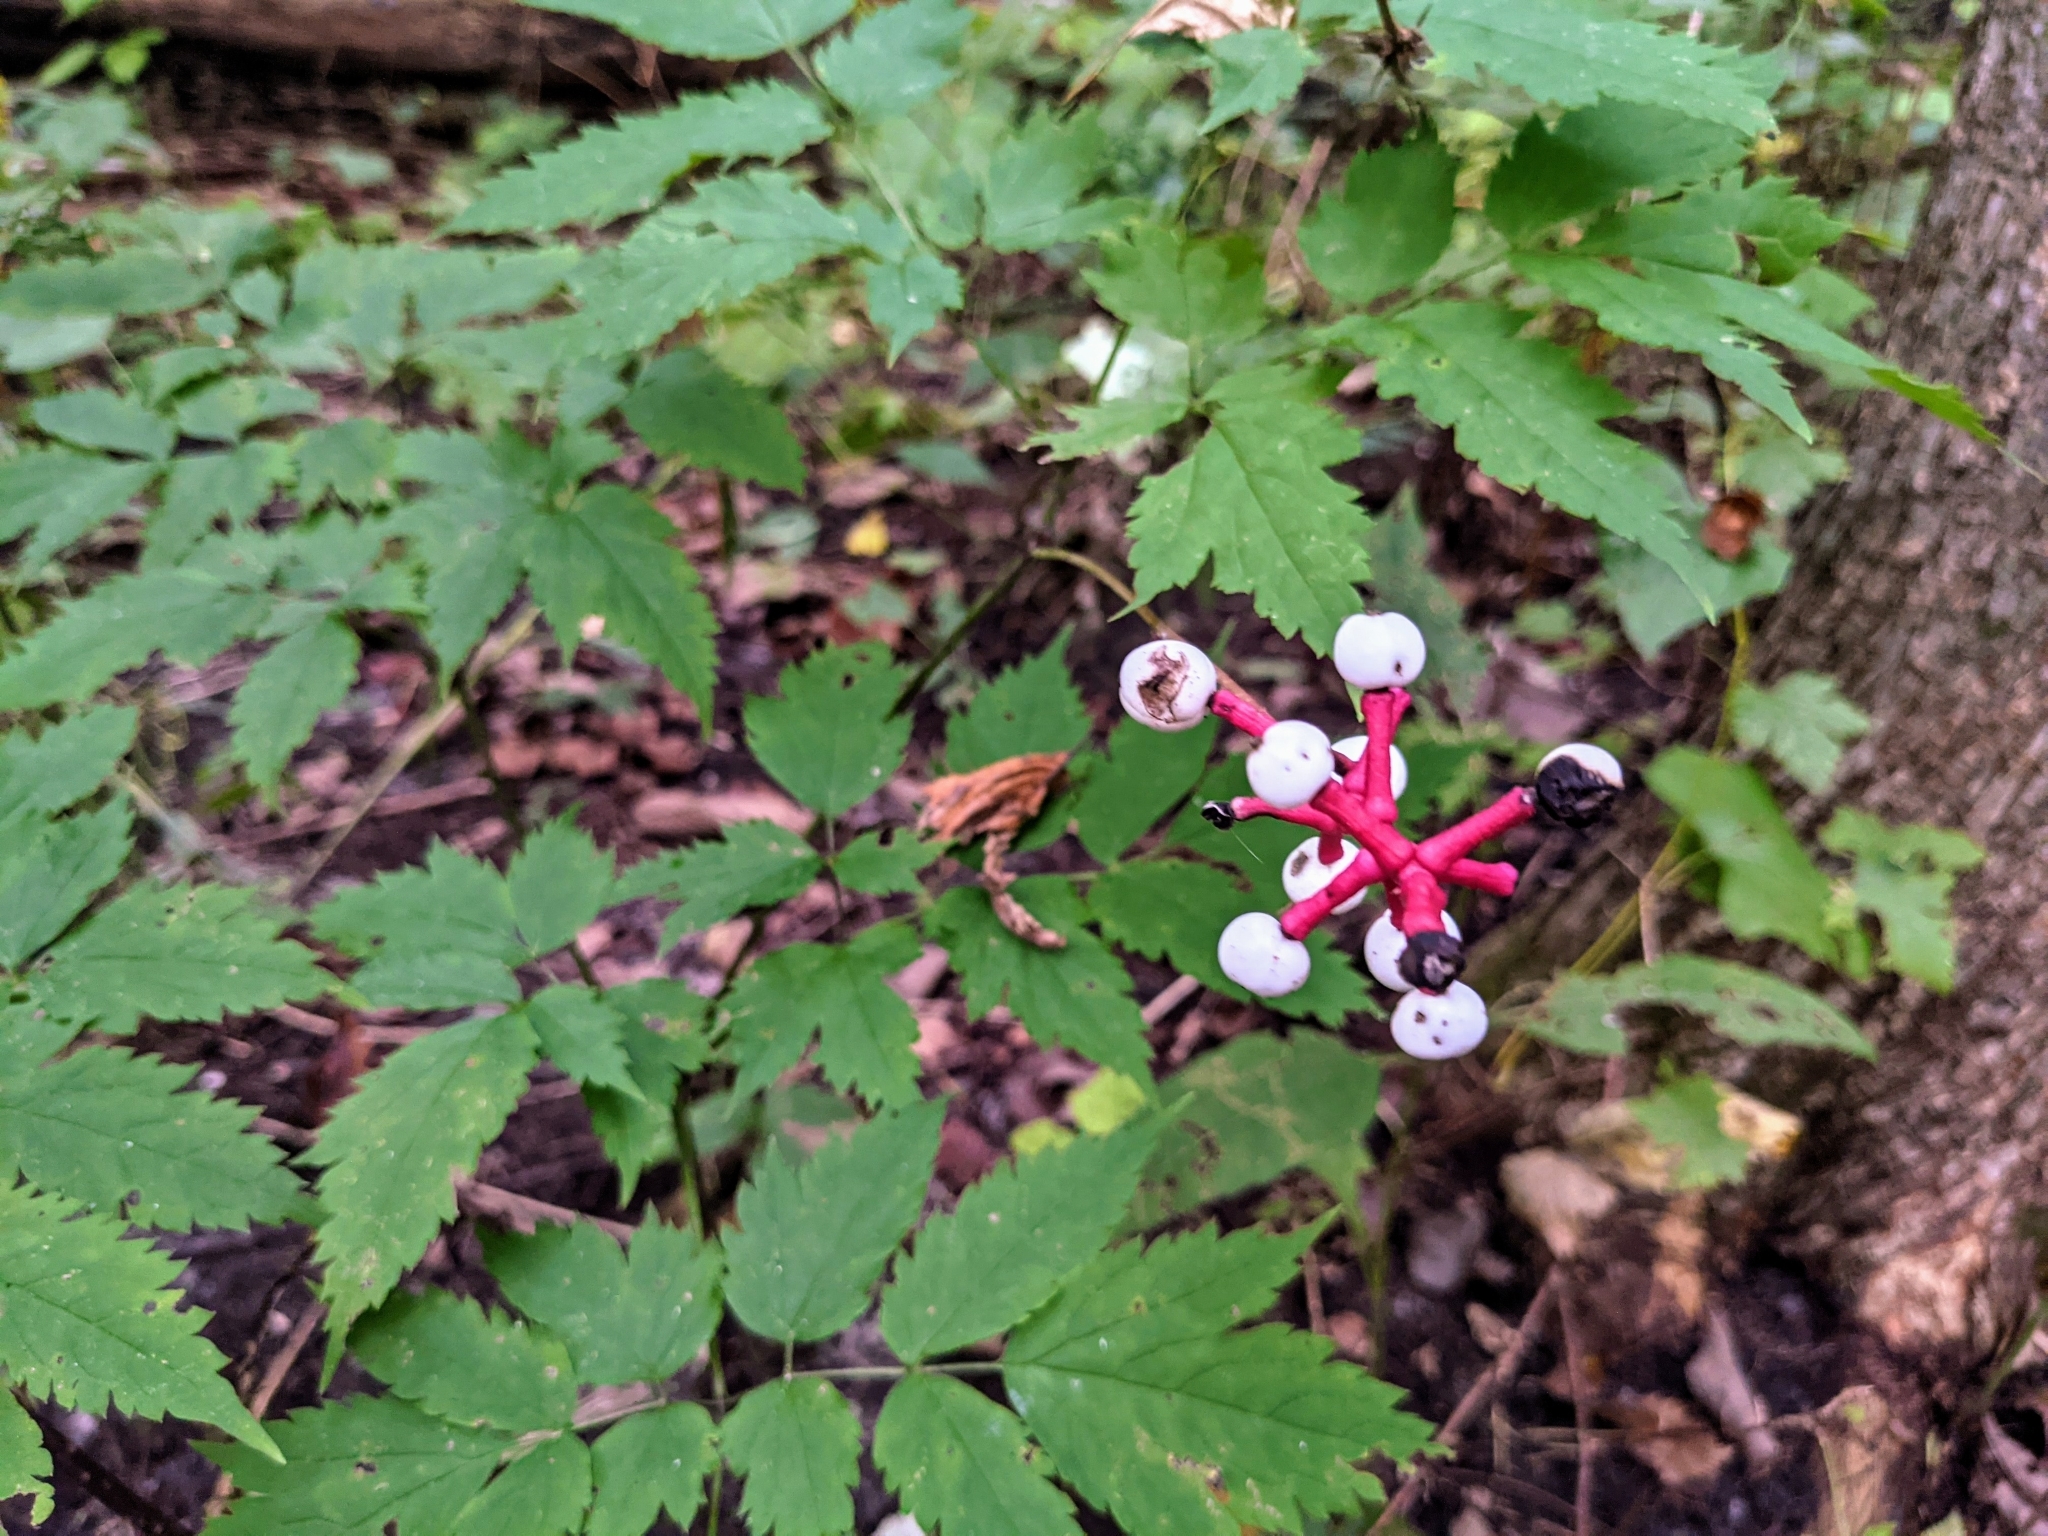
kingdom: Plantae
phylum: Tracheophyta
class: Magnoliopsida
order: Ranunculales
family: Ranunculaceae
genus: Actaea
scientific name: Actaea pachypoda
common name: Doll's-eyes
